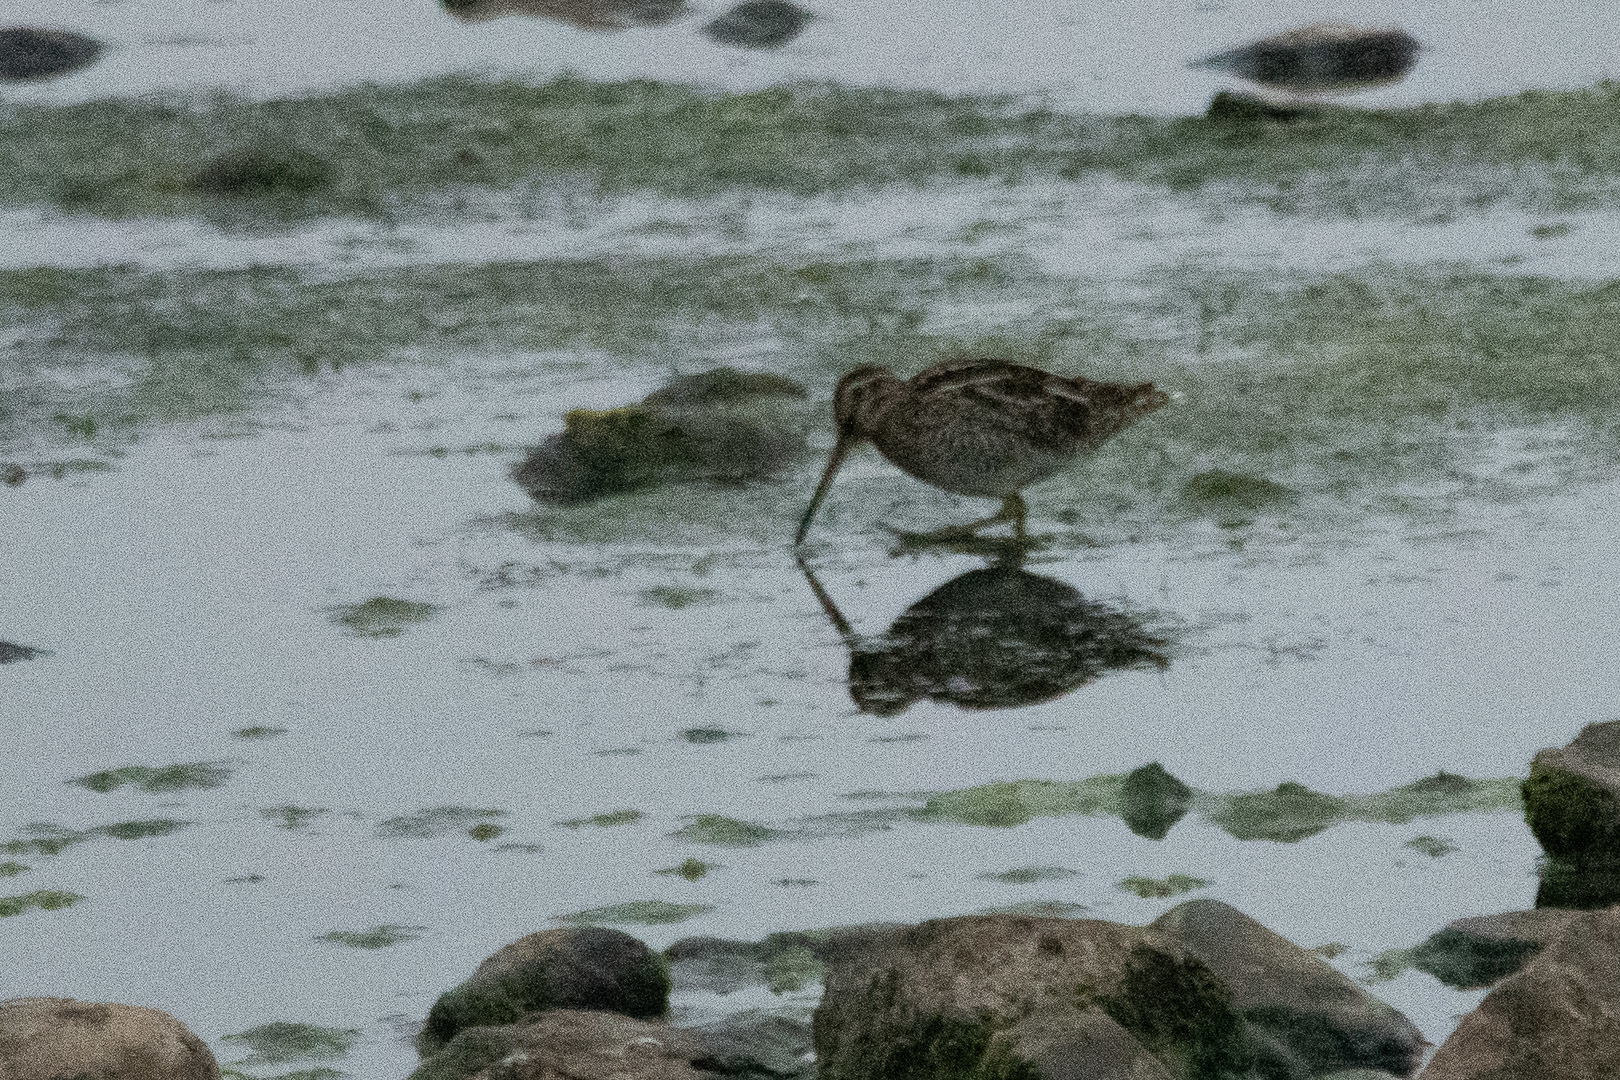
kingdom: Animalia
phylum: Chordata
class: Aves
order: Charadriiformes
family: Scolopacidae
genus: Gallinago
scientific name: Gallinago magellanica
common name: Magellanic snipe
